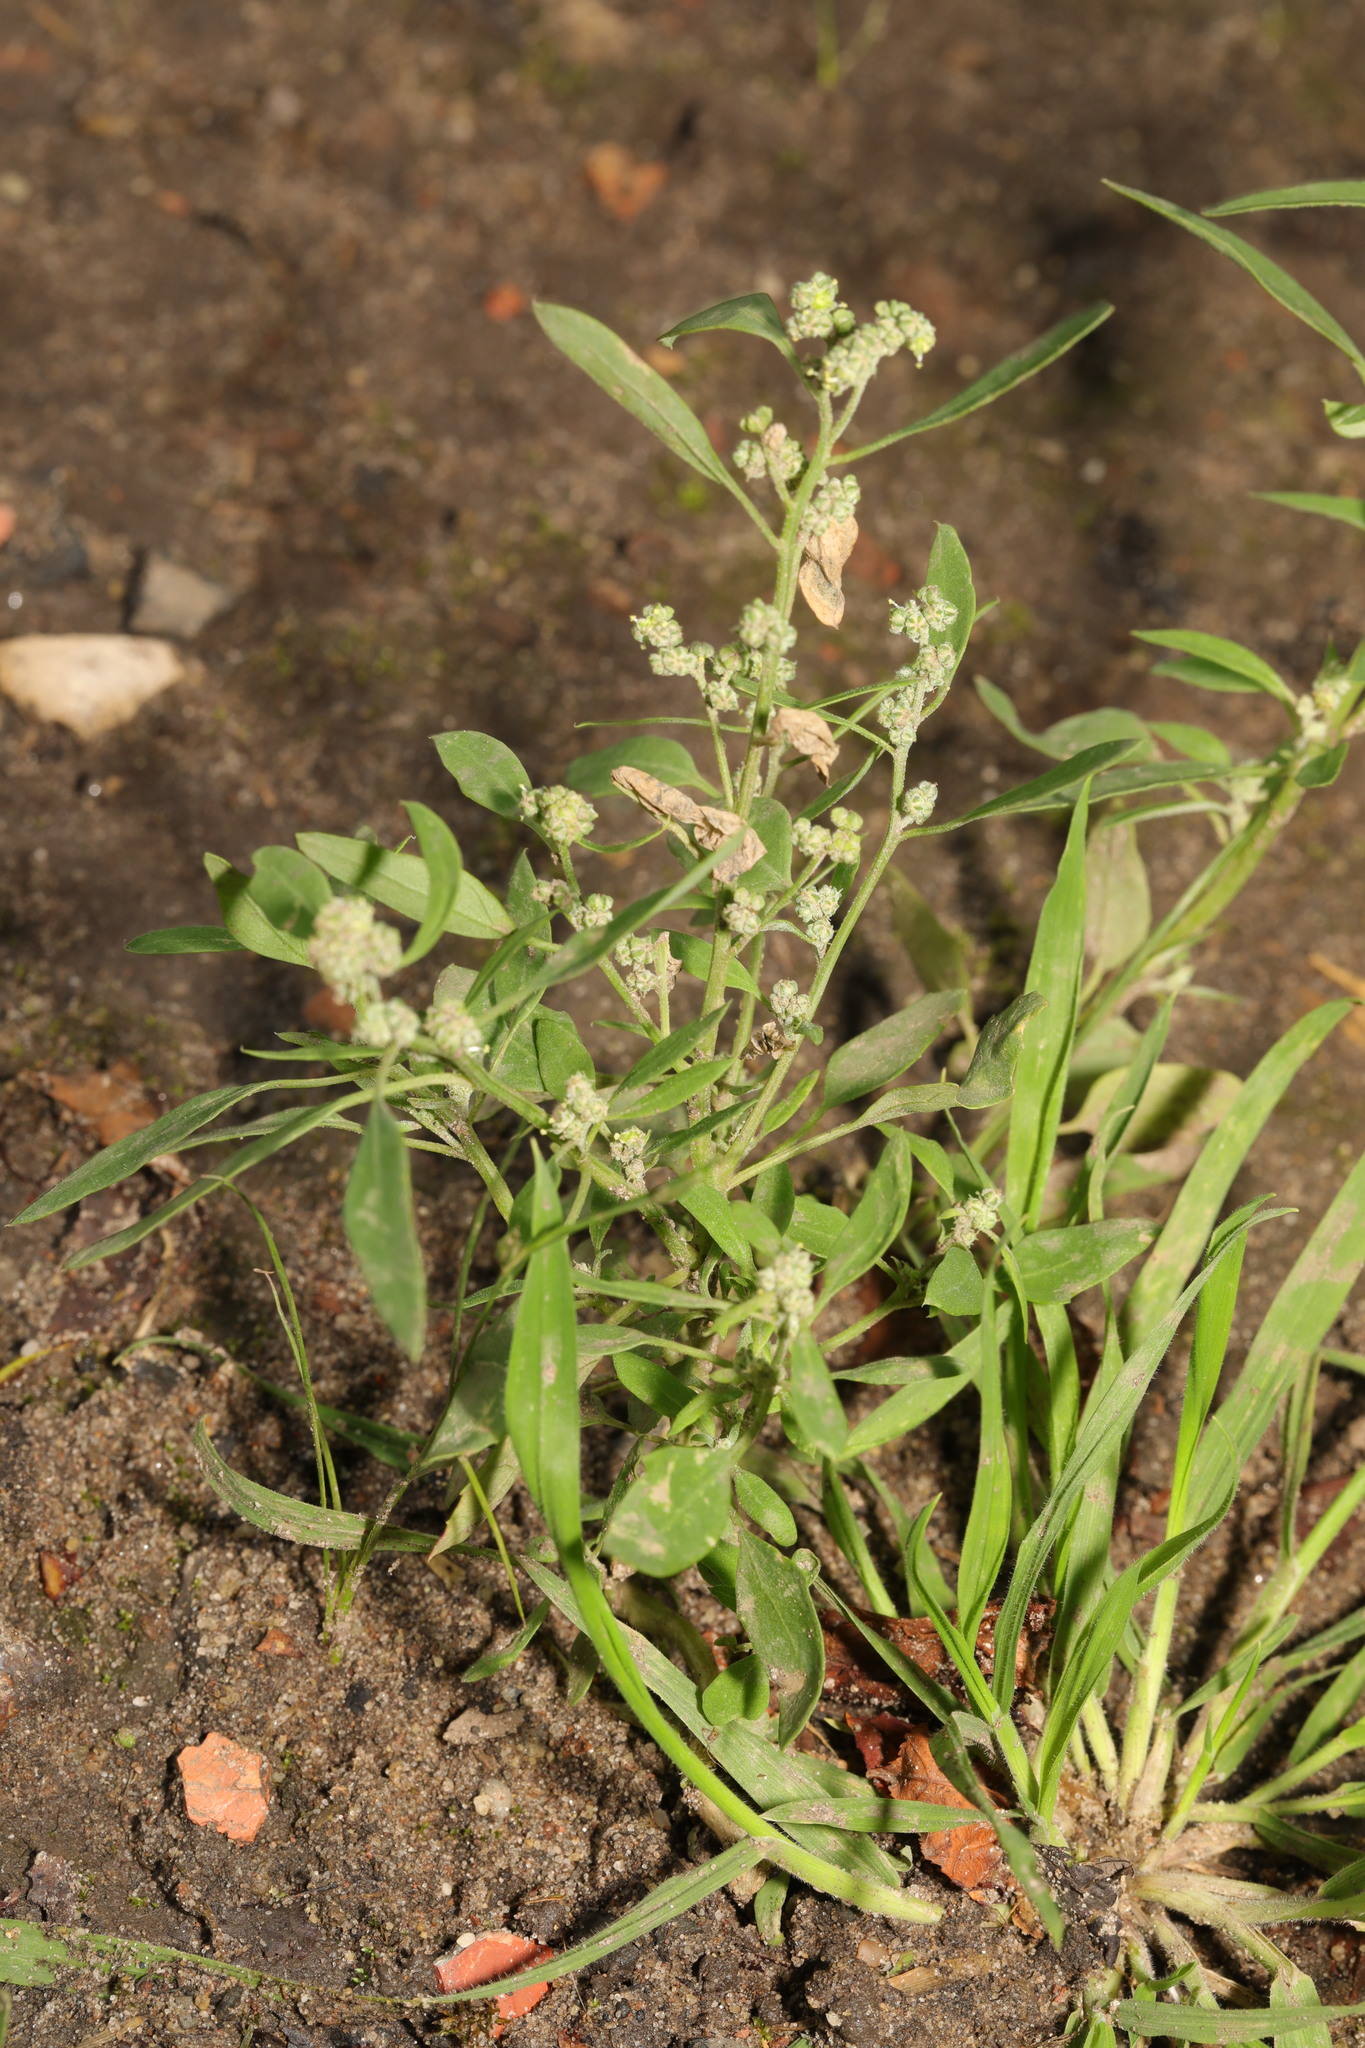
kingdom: Plantae
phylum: Tracheophyta
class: Magnoliopsida
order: Caryophyllales
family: Amaranthaceae
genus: Chenopodium
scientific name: Chenopodium album
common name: Fat-hen
